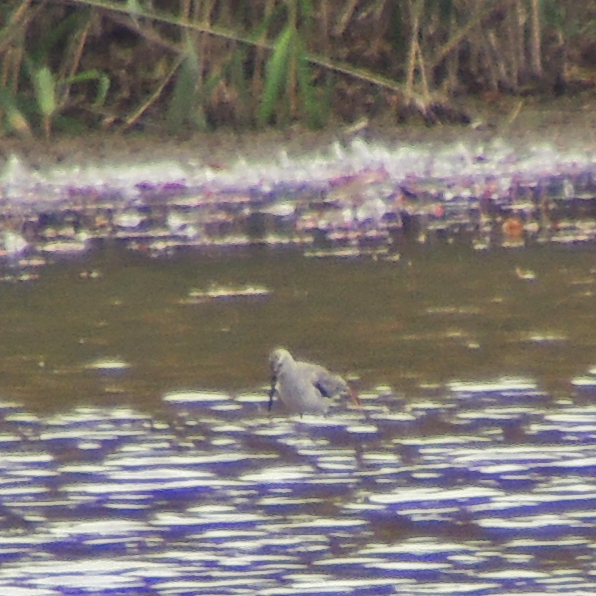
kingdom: Animalia
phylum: Chordata
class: Aves
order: Charadriiformes
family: Scolopacidae
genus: Calidris
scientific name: Calidris himantopus
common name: Stilt sandpiper
